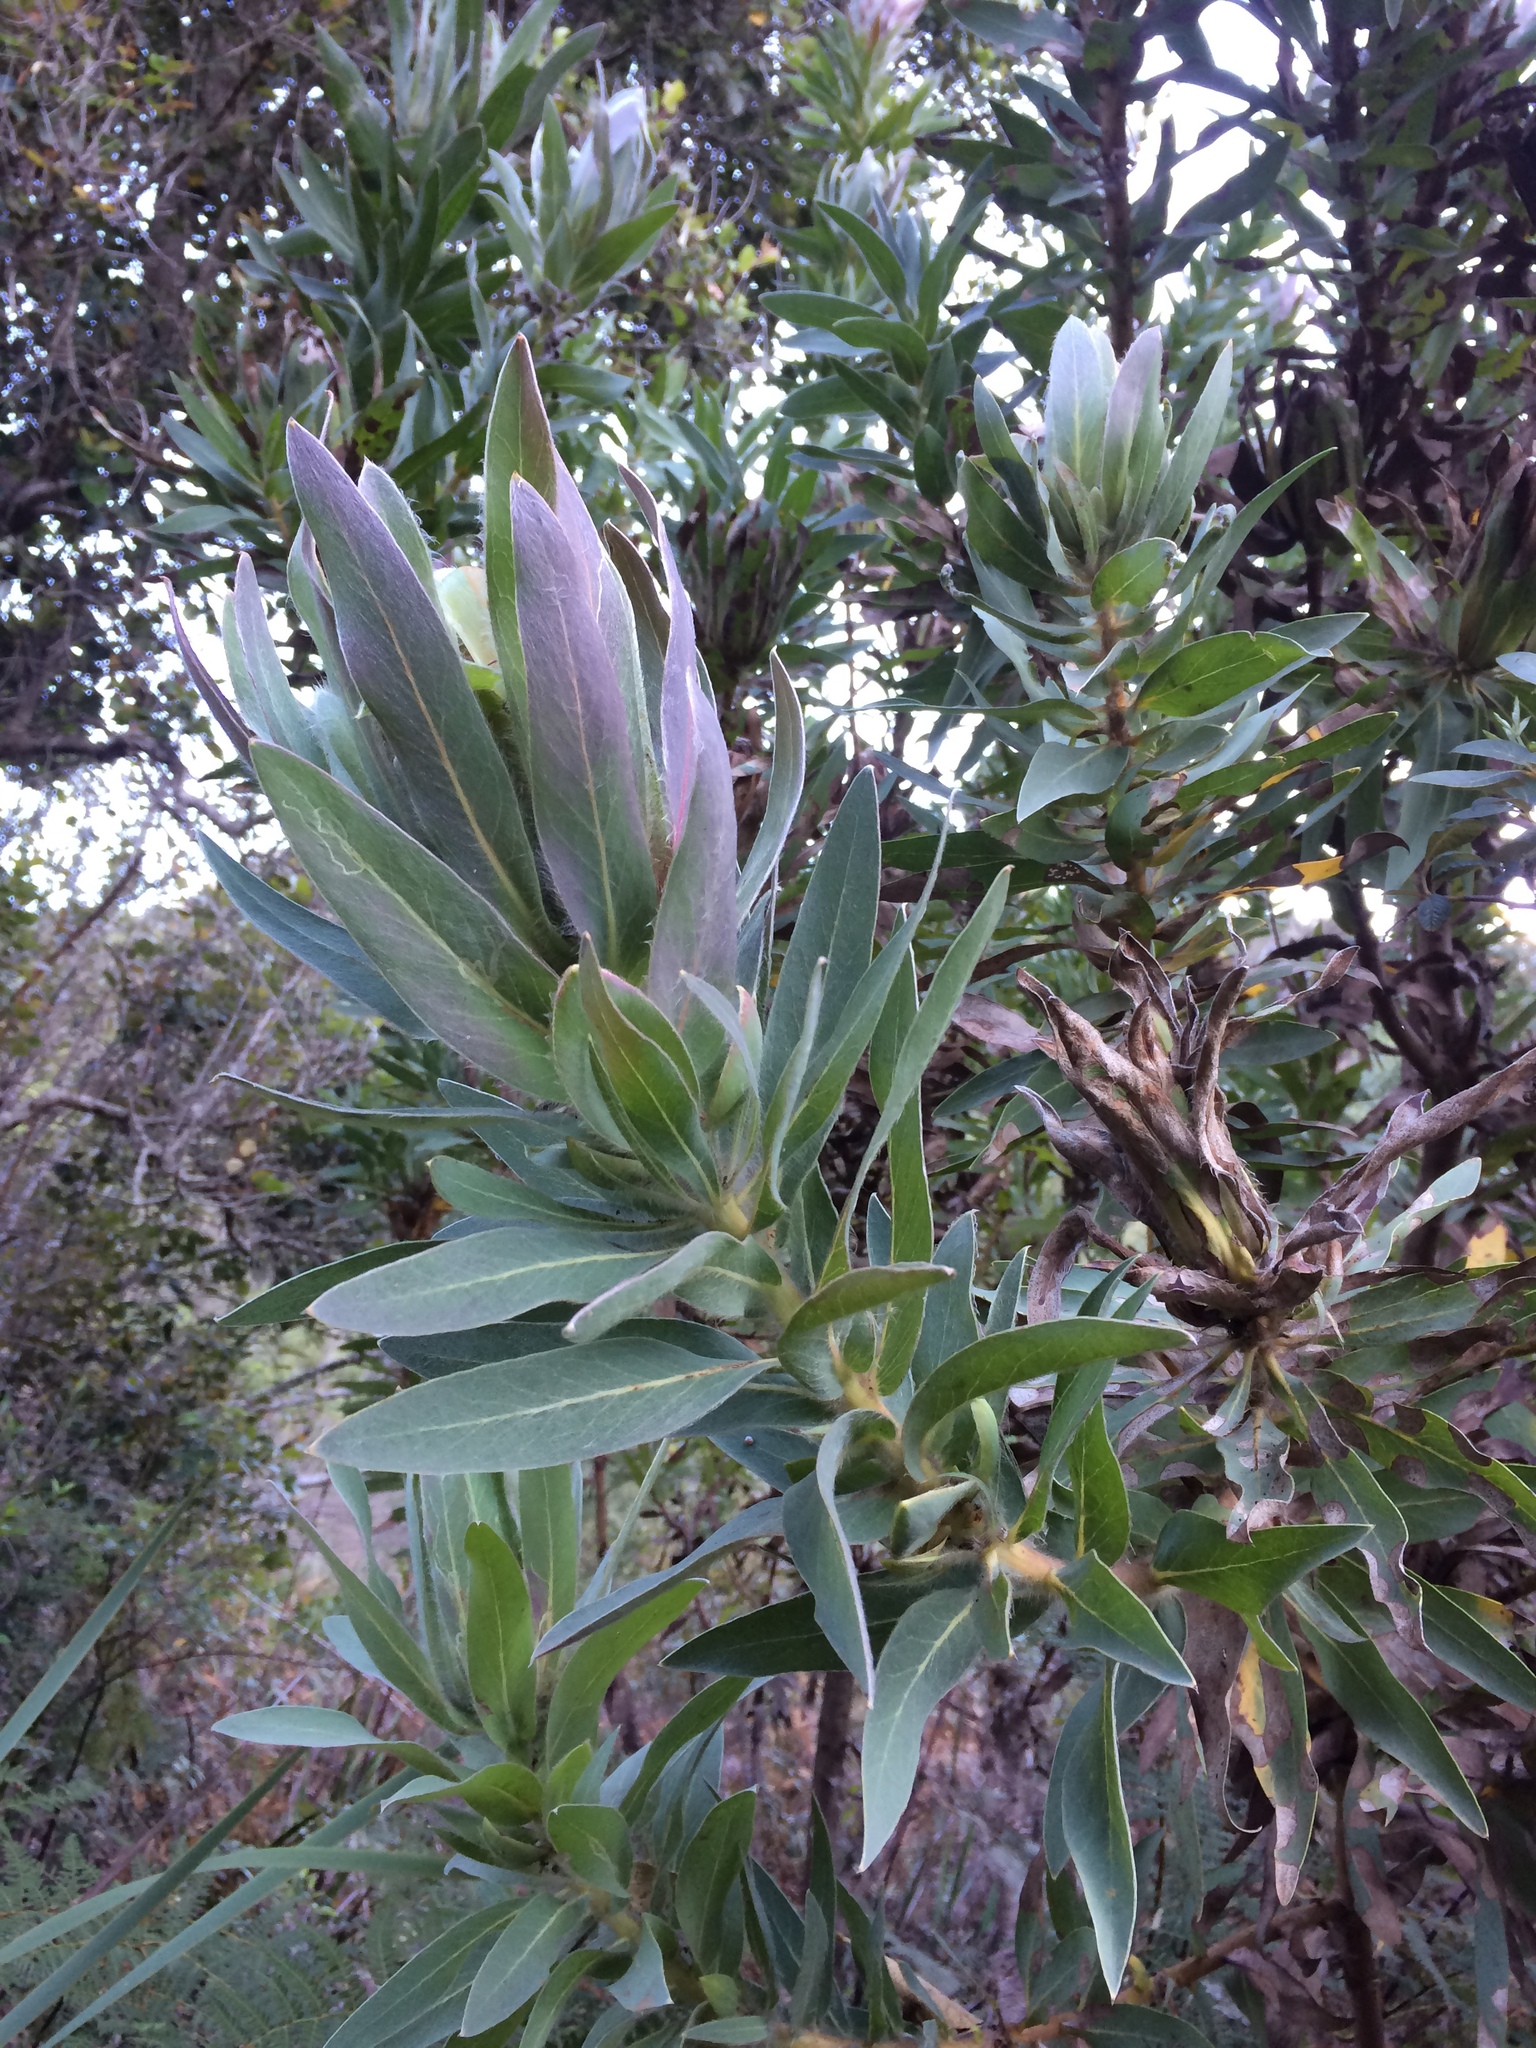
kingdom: Plantae
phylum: Tracheophyta
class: Magnoliopsida
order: Proteales
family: Proteaceae
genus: Protea
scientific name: Protea coronata
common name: Green sugarbush
